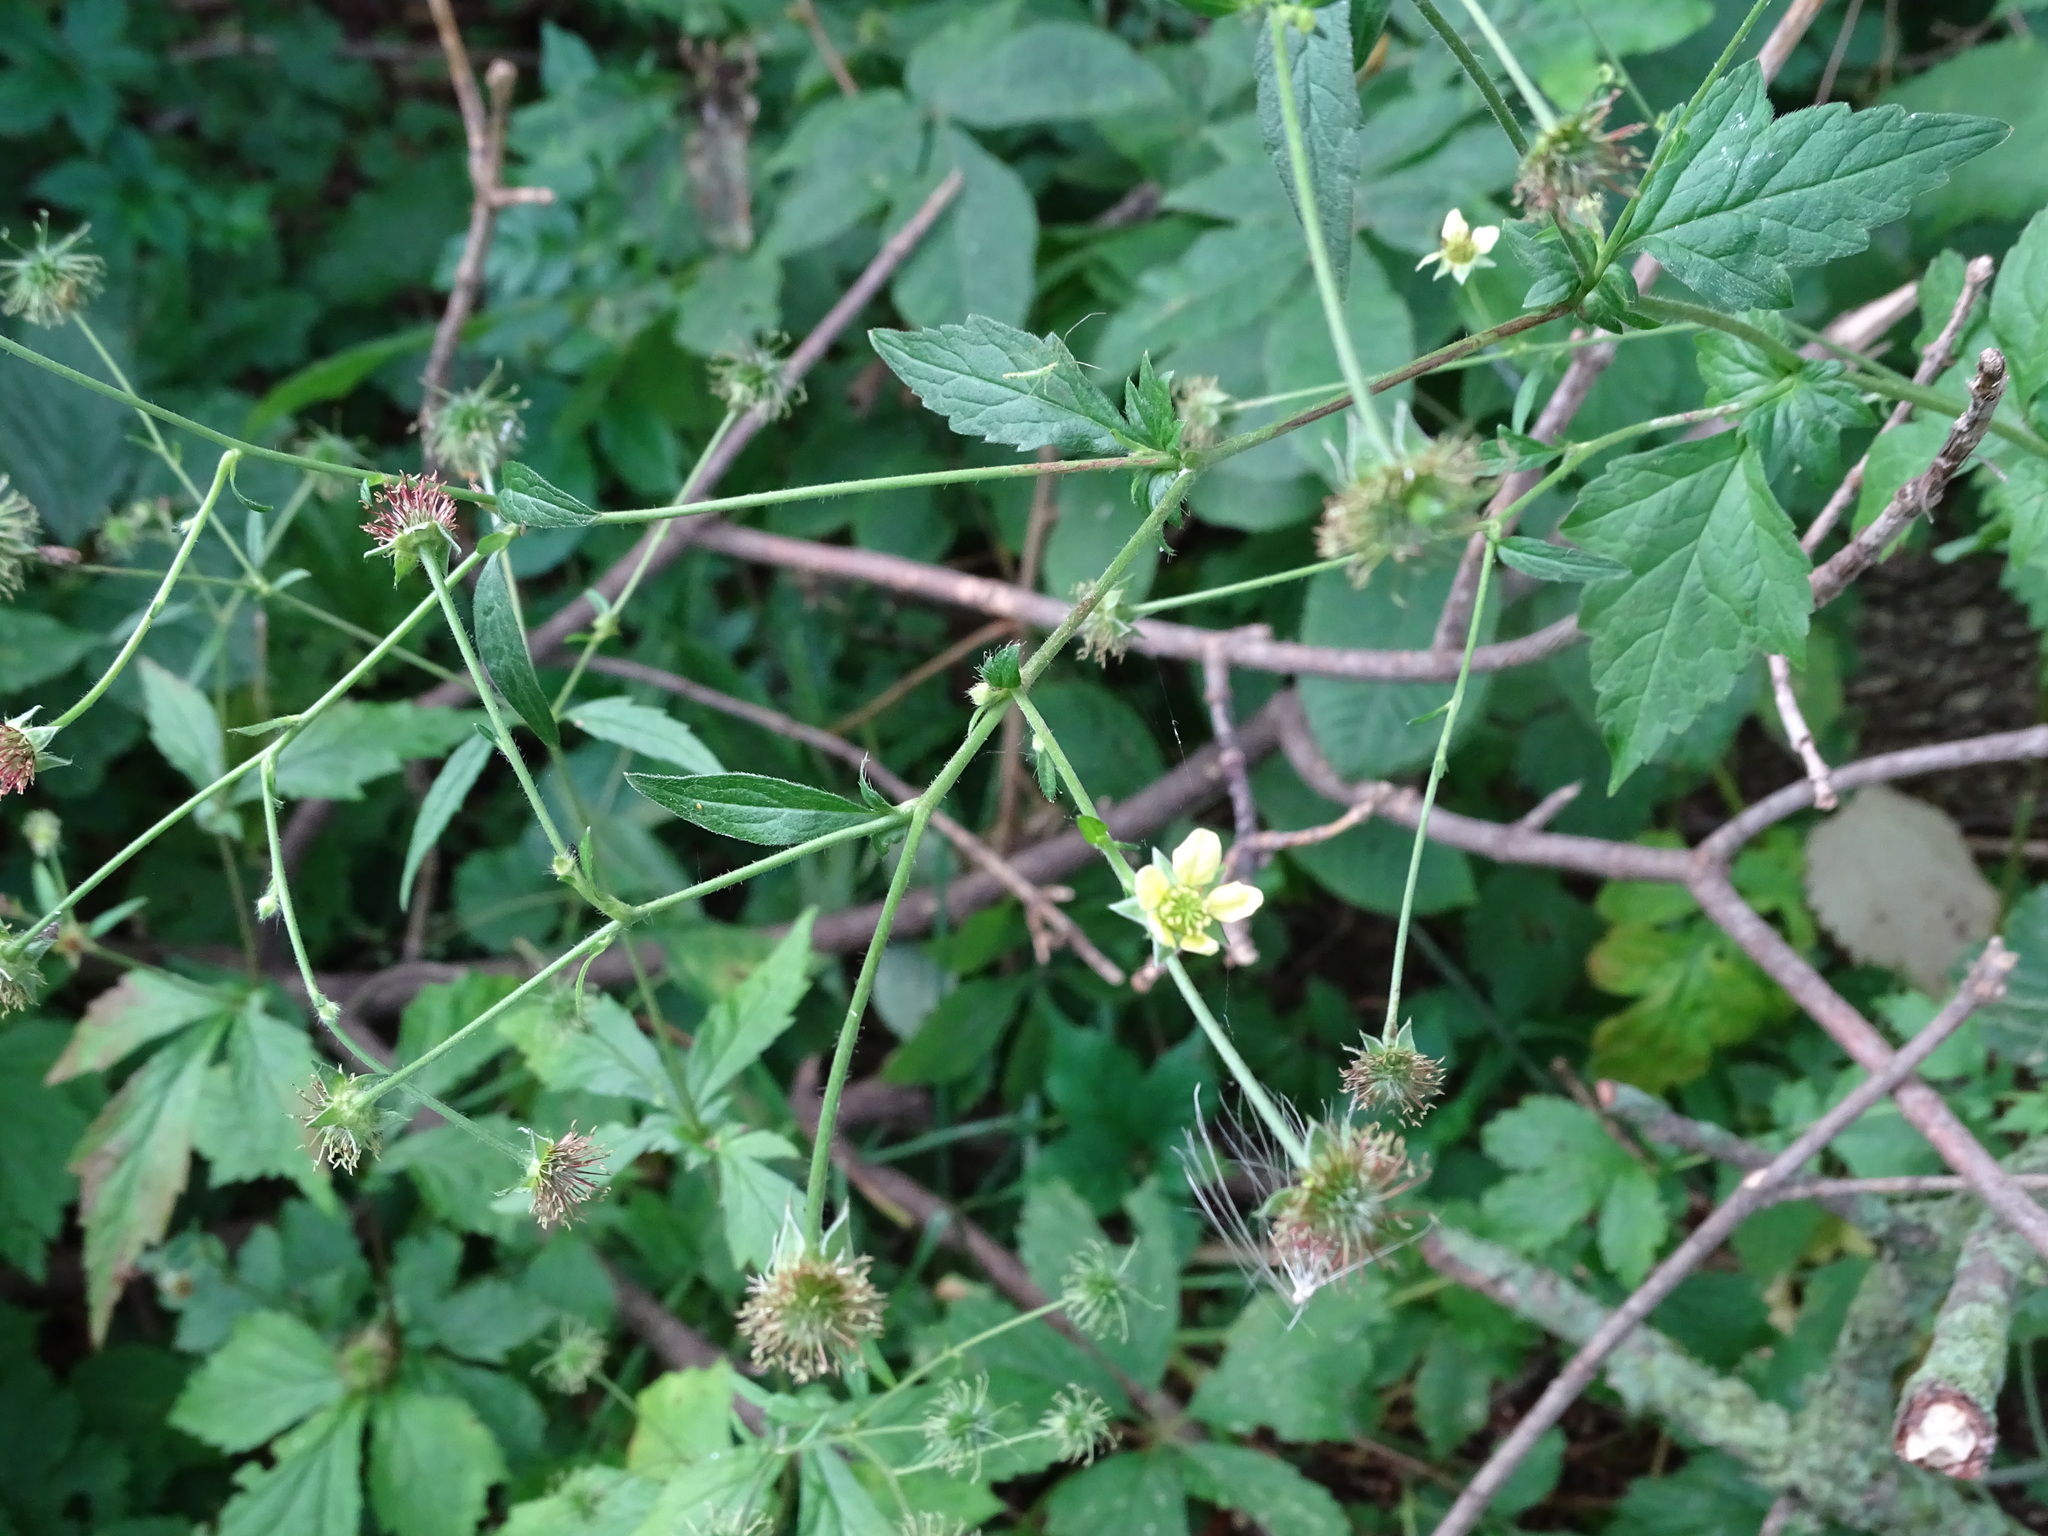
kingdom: Plantae
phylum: Tracheophyta
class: Magnoliopsida
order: Rosales
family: Rosaceae
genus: Geum
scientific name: Geum catlingii
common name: Catling's avens
